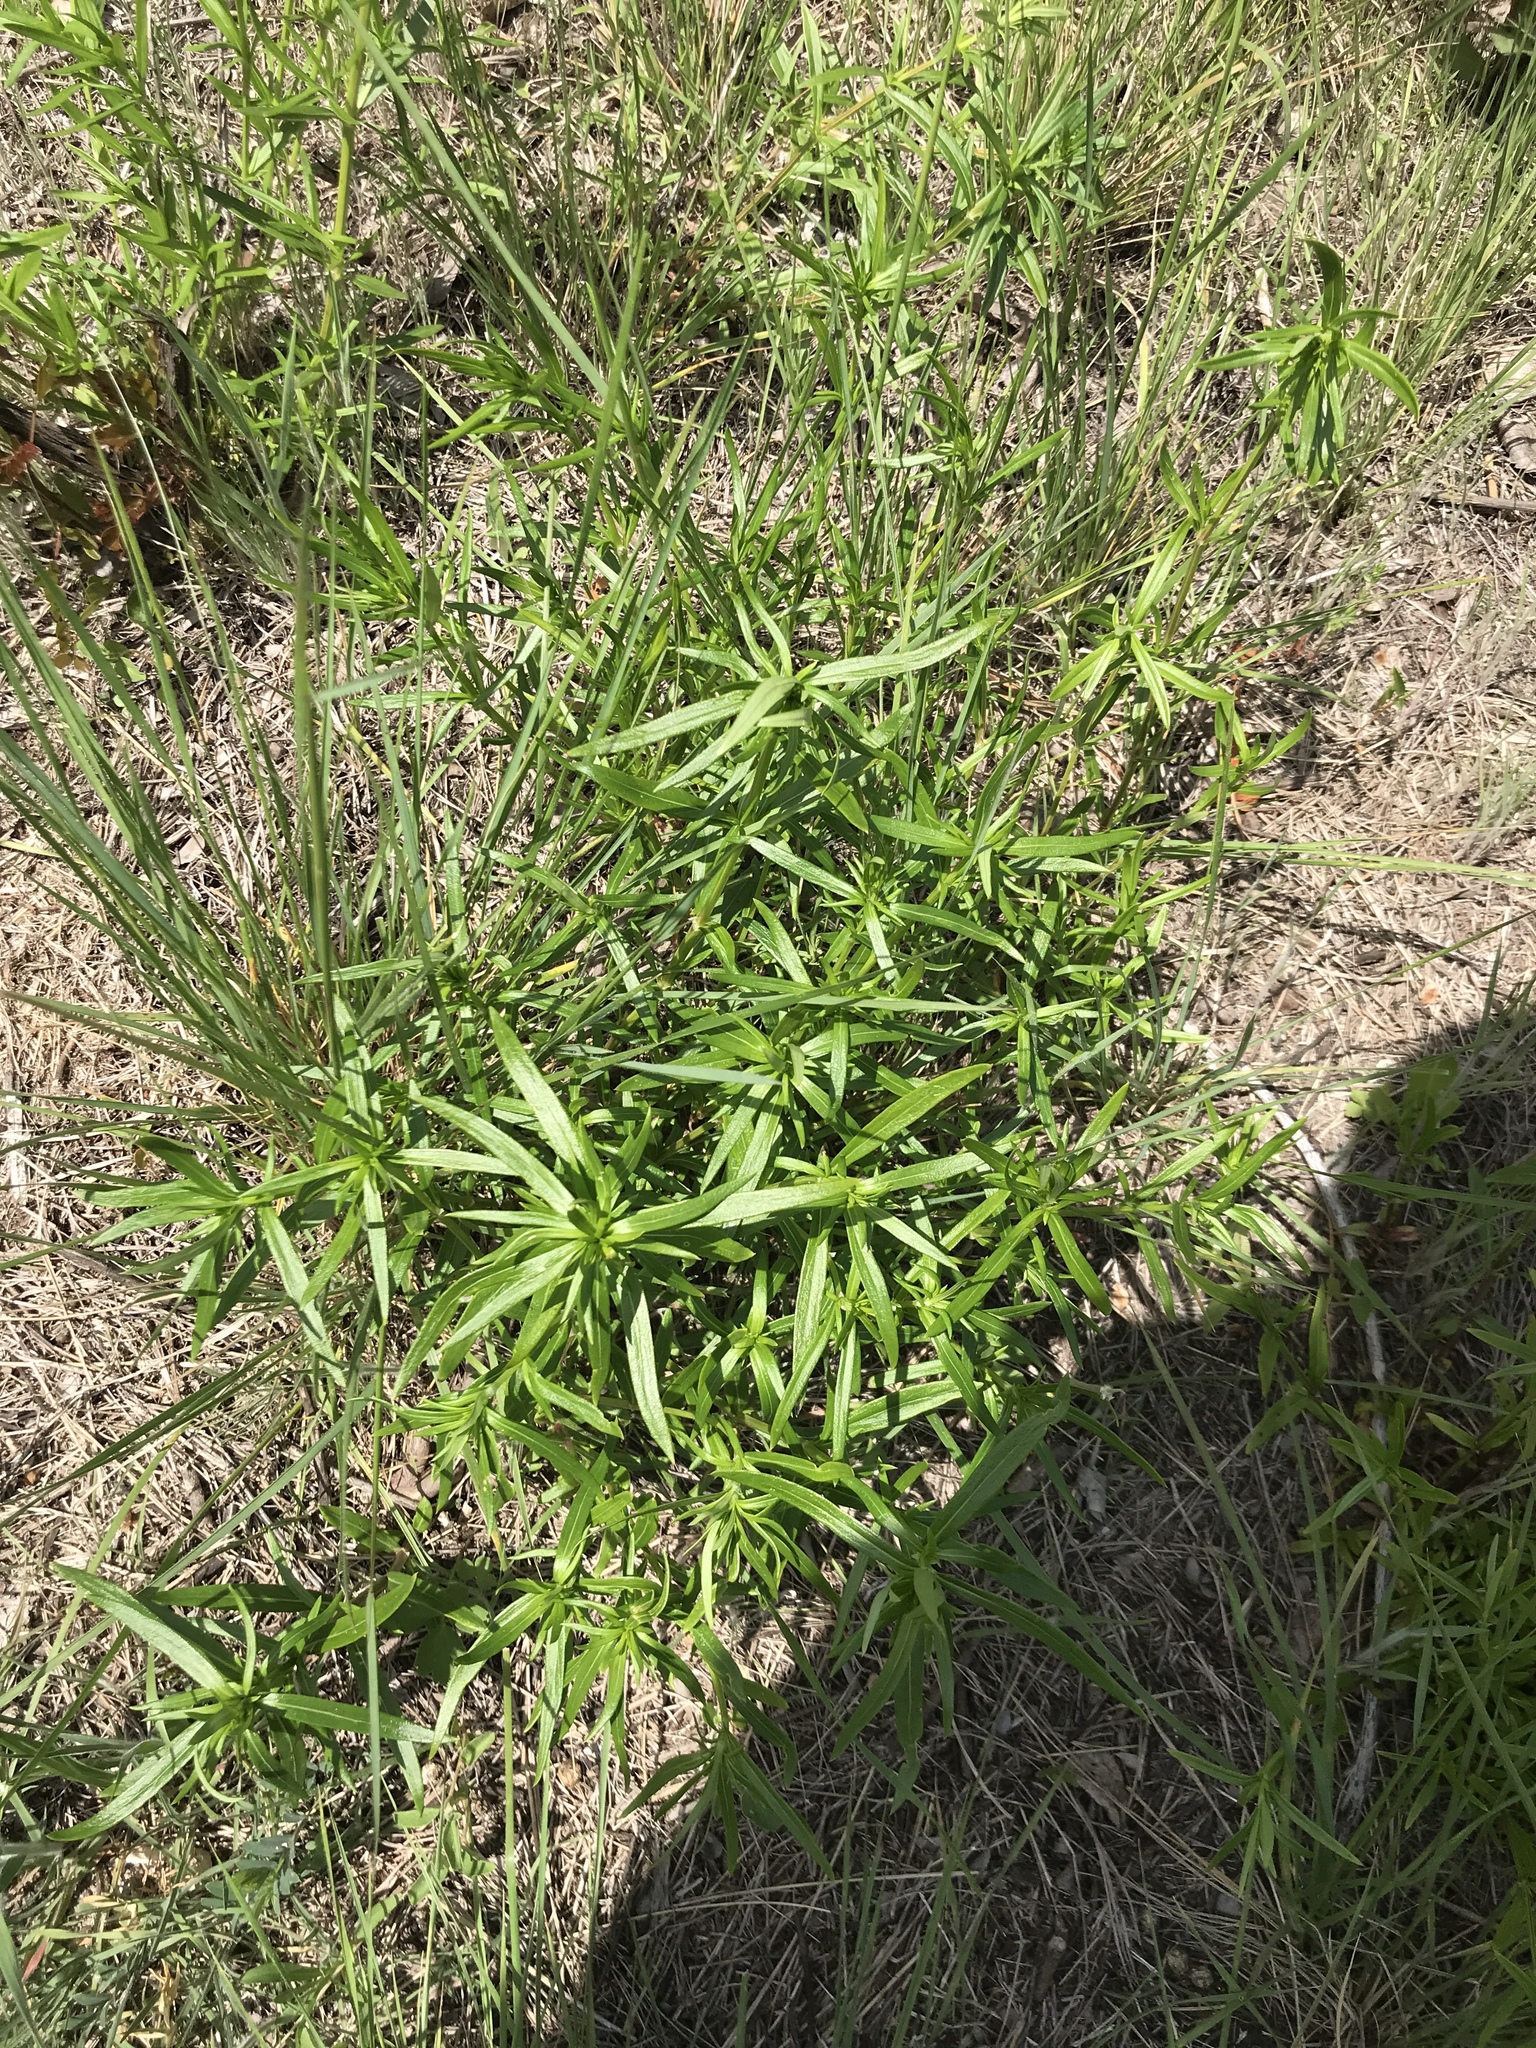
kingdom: Plantae
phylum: Tracheophyta
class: Magnoliopsida
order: Asterales
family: Asteraceae
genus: Erigeron
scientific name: Erigeron canadensis
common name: Canadian fleabane
